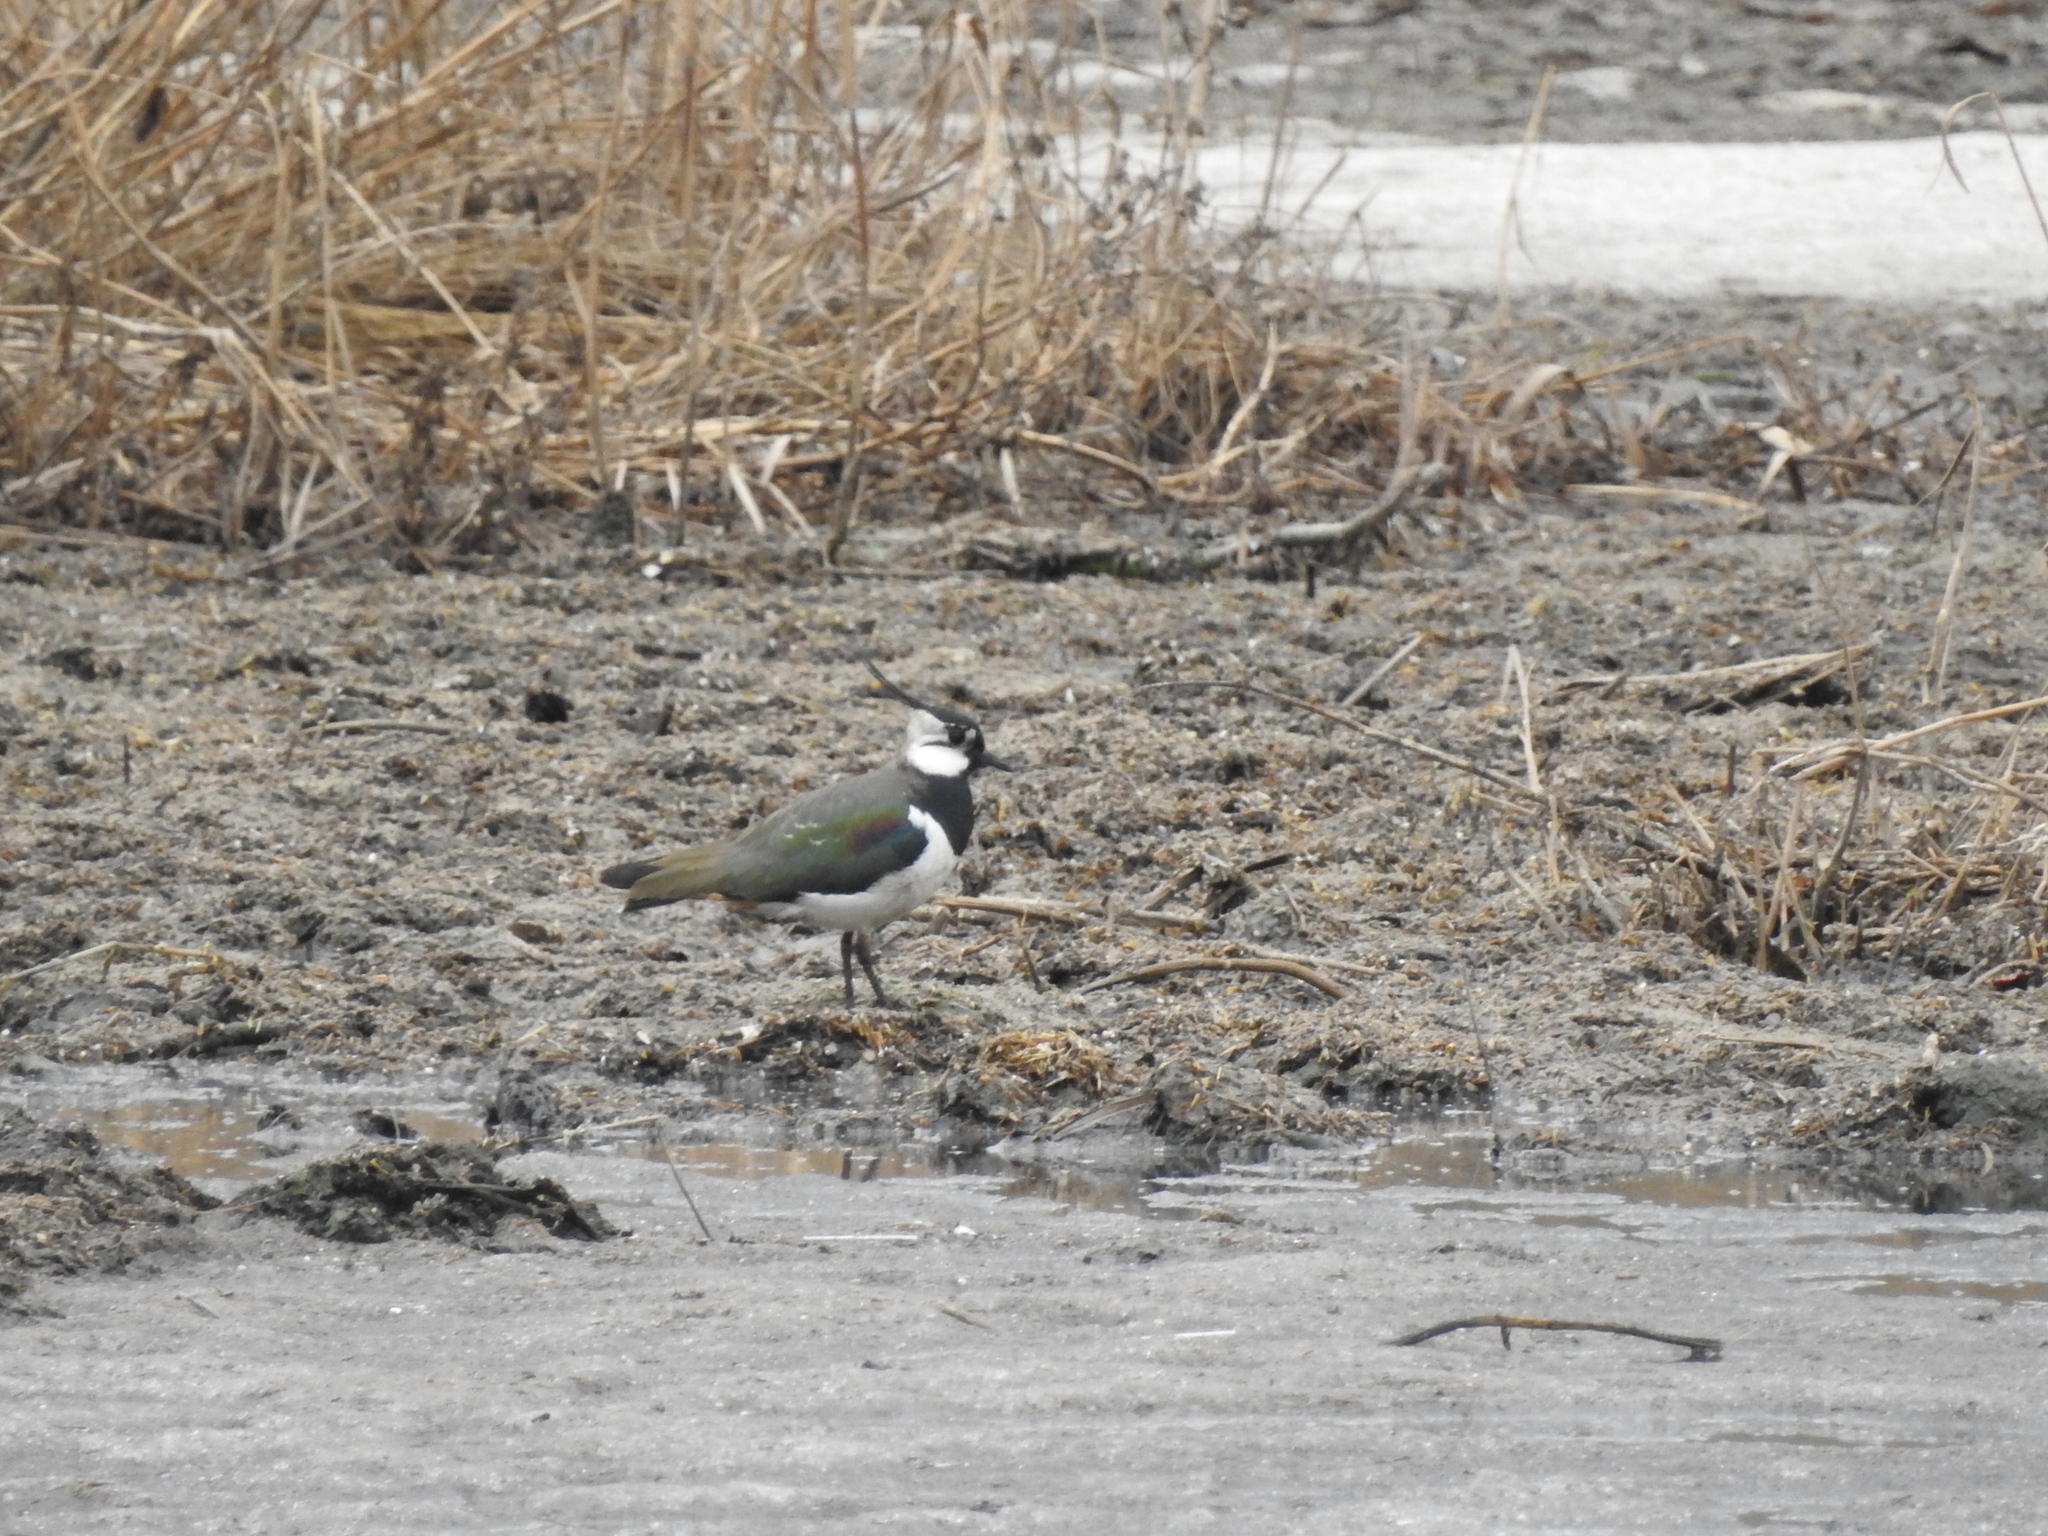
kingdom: Animalia
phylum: Chordata
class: Aves
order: Charadriiformes
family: Charadriidae
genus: Vanellus
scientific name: Vanellus vanellus
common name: Northern lapwing
